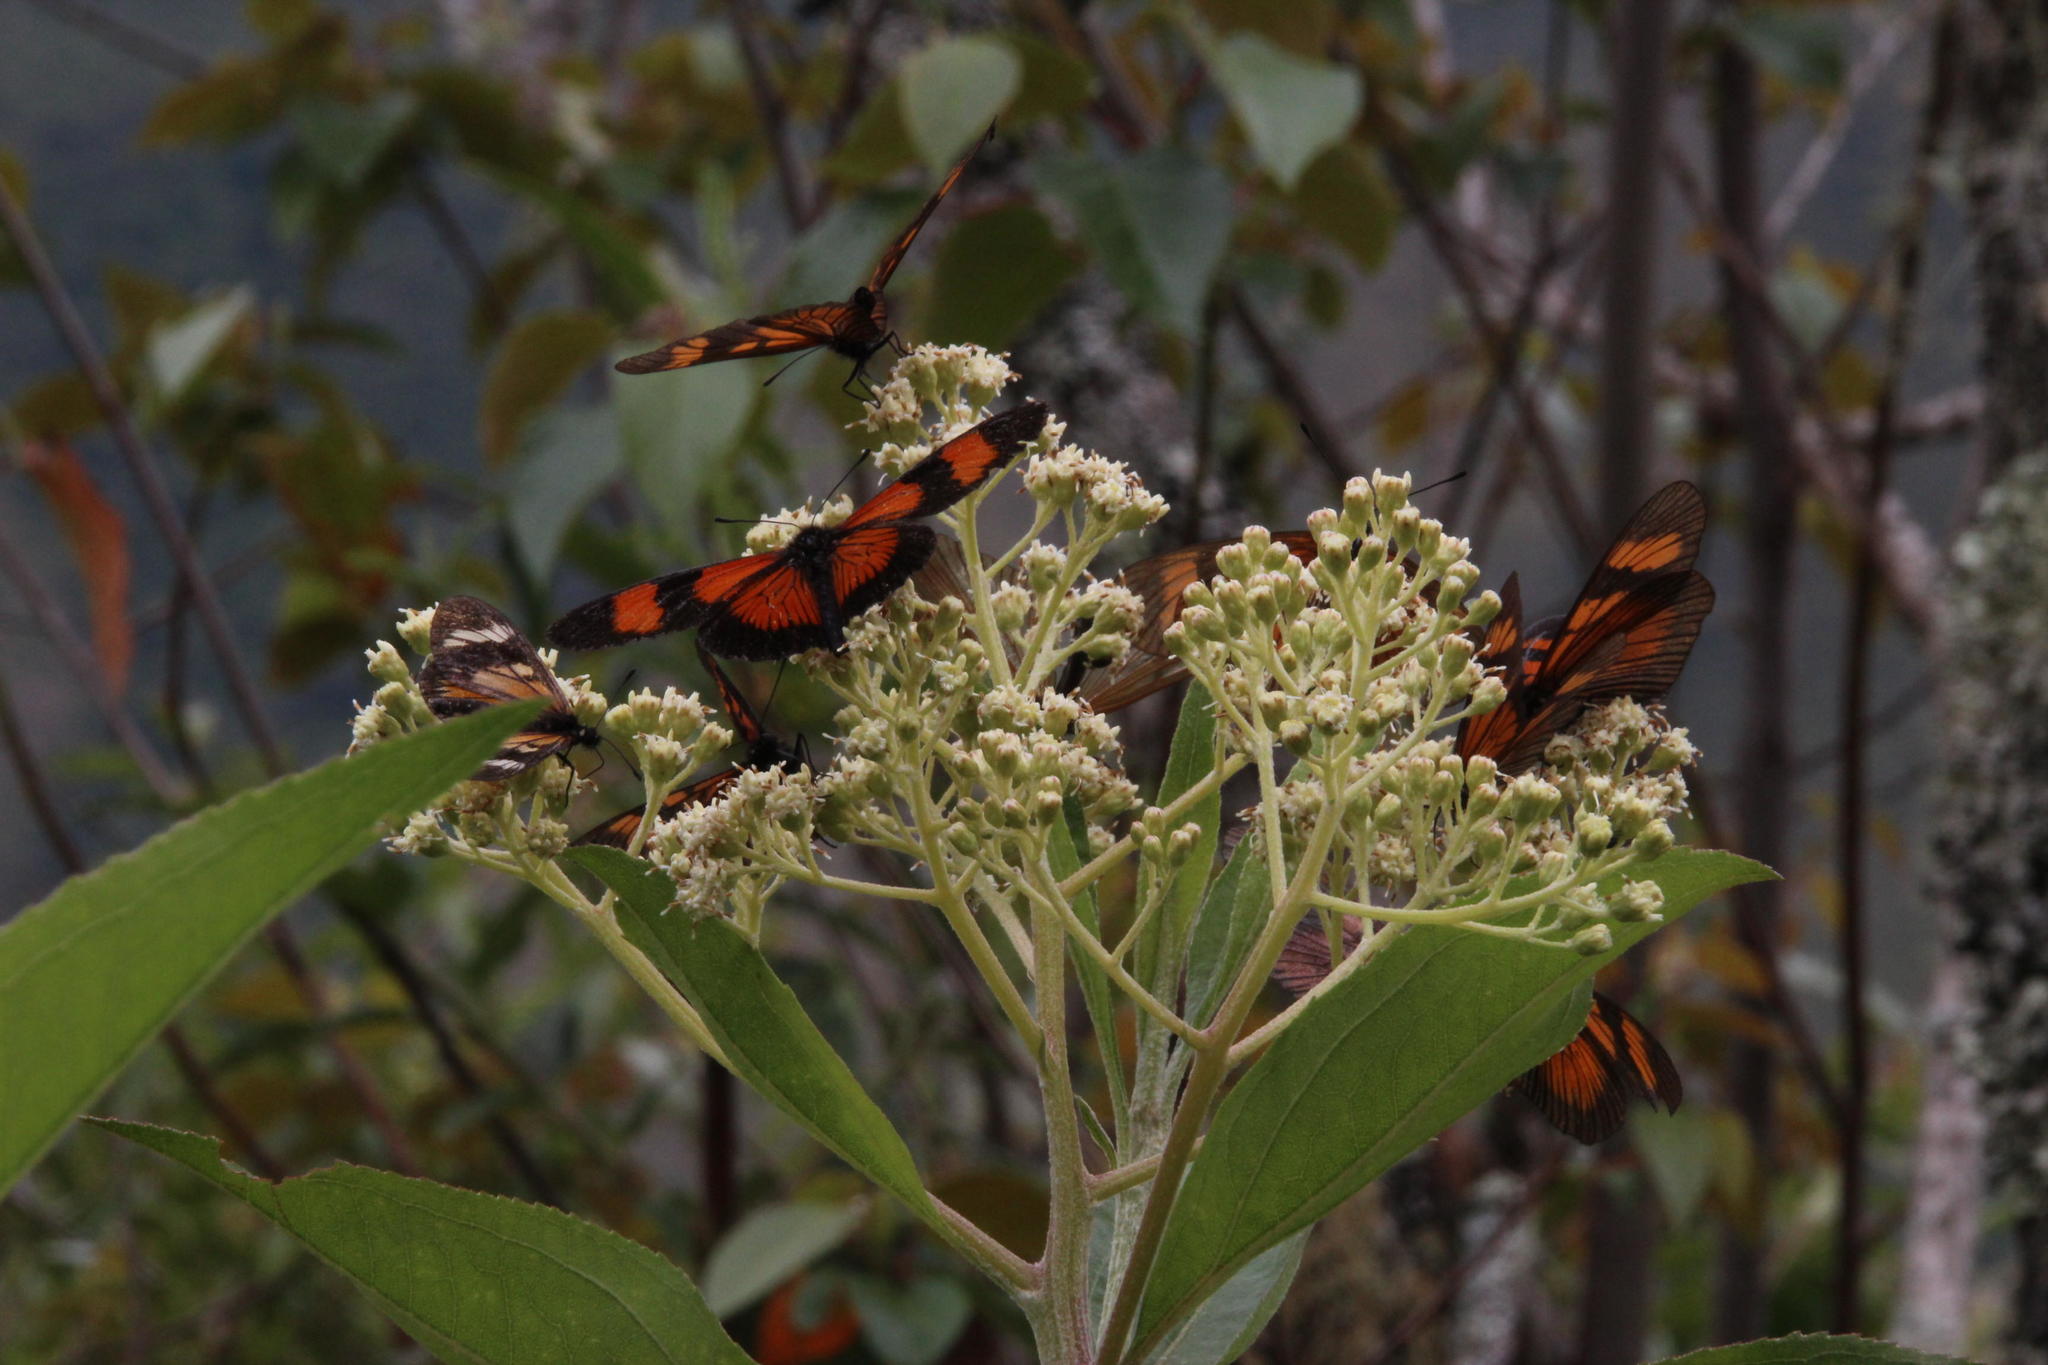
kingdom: Animalia
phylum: Arthropoda
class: Insecta
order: Lepidoptera
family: Nymphalidae
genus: Actinote
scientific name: Actinote negra
